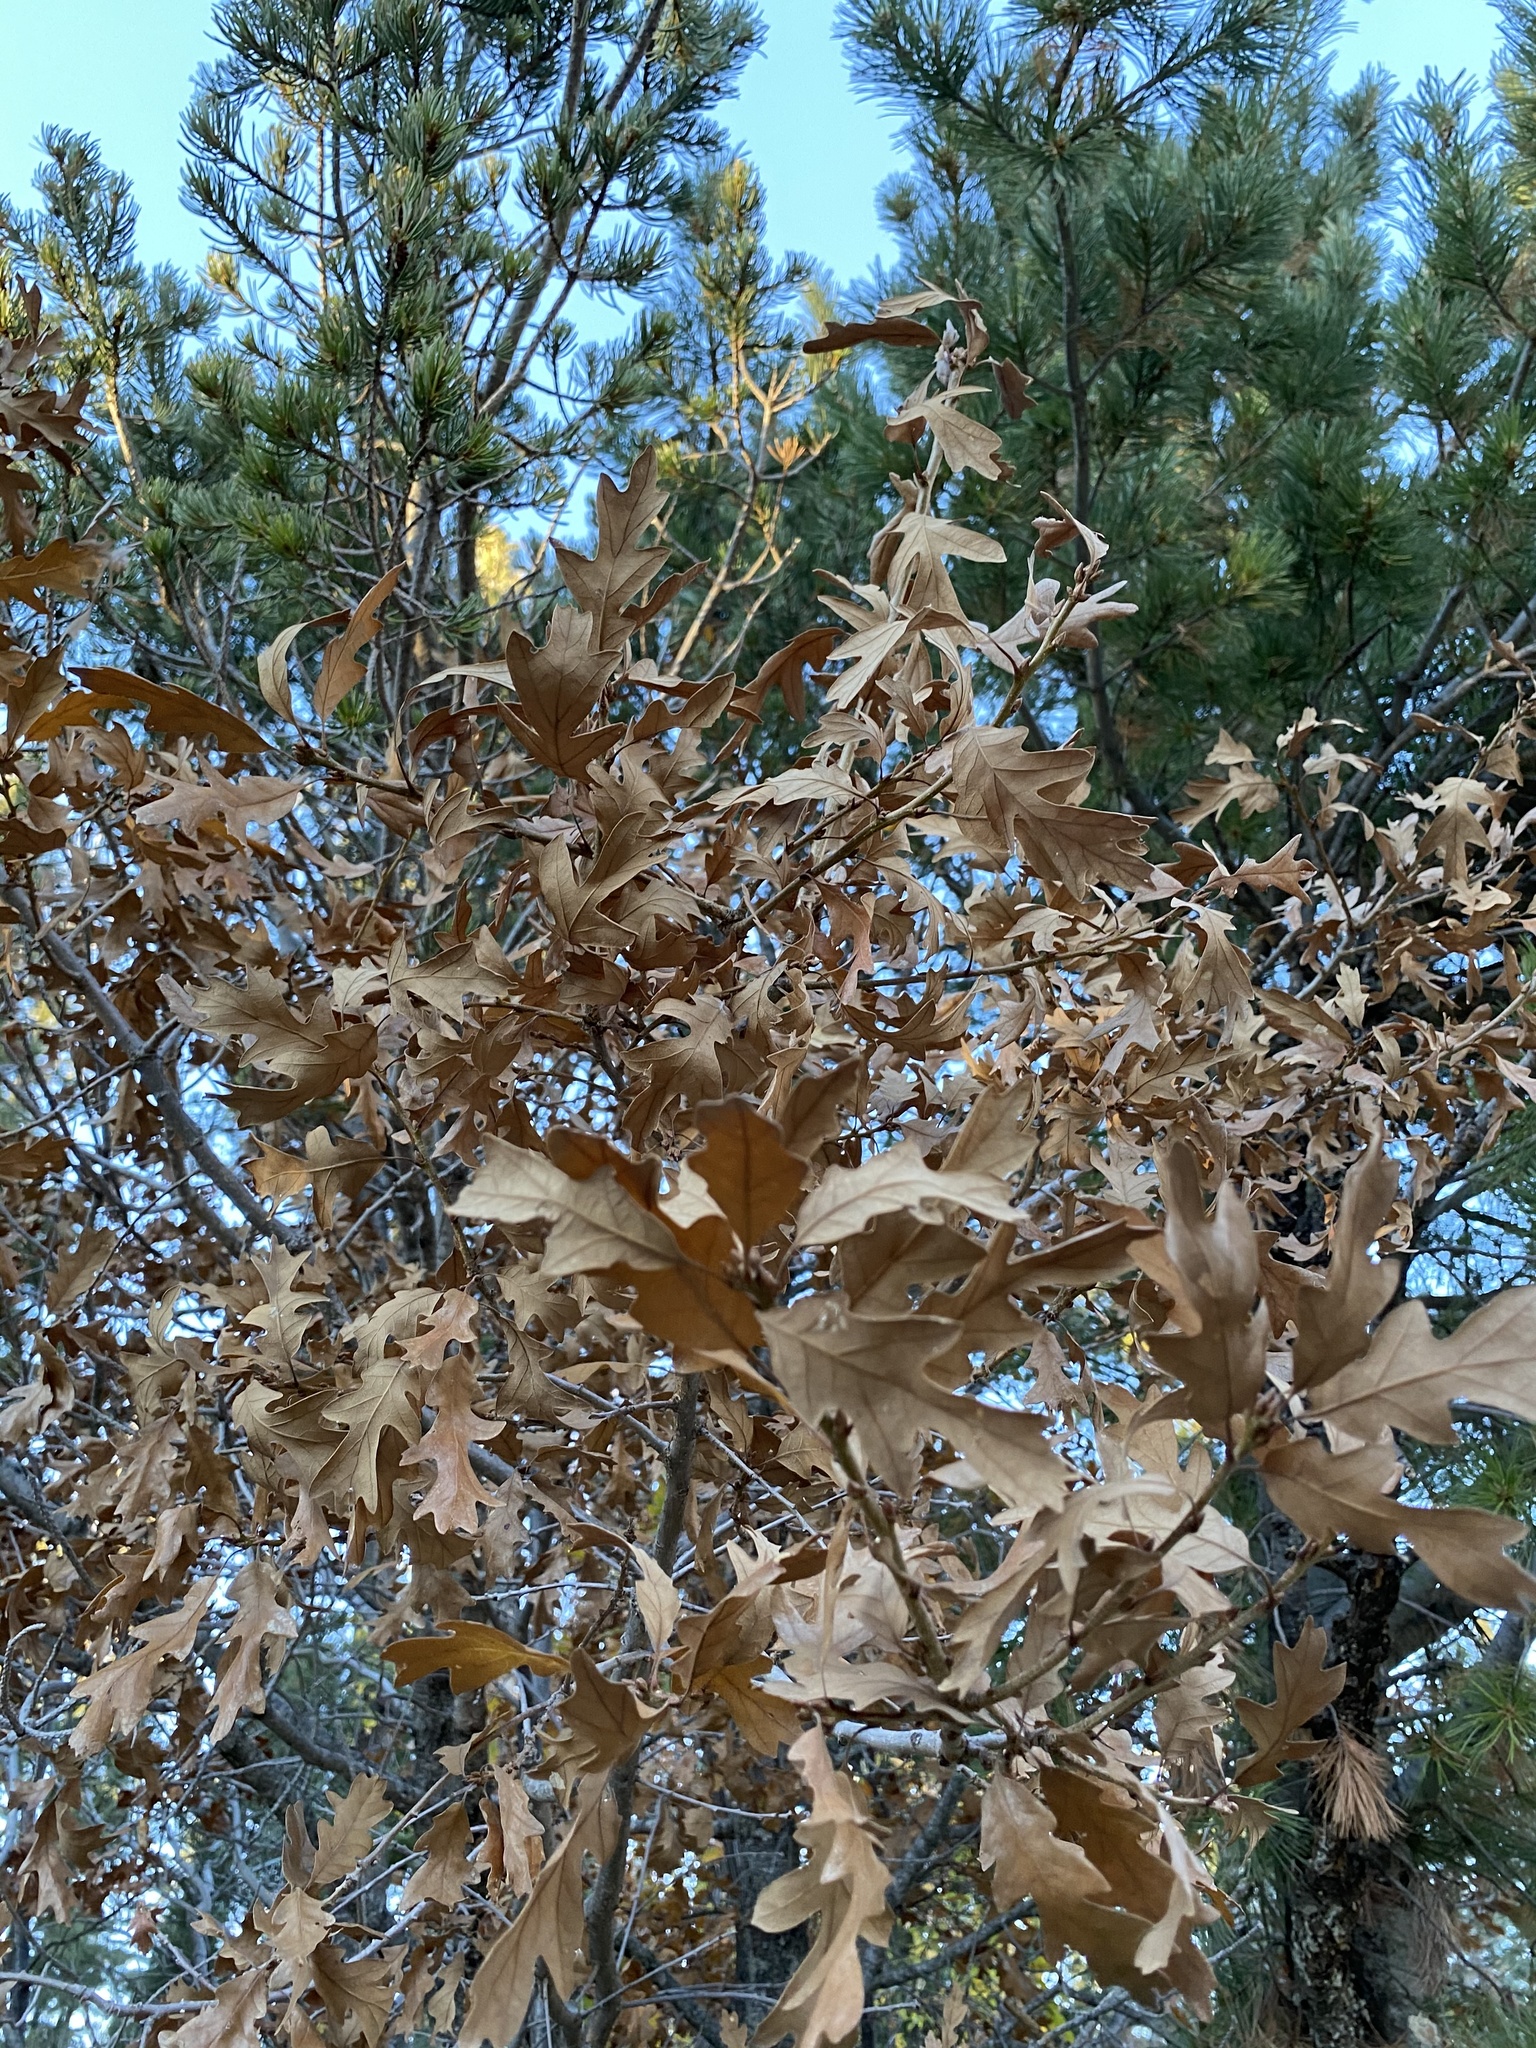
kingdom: Plantae
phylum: Tracheophyta
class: Magnoliopsida
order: Fagales
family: Fagaceae
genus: Quercus
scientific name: Quercus gambelii
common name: Gambel oak
